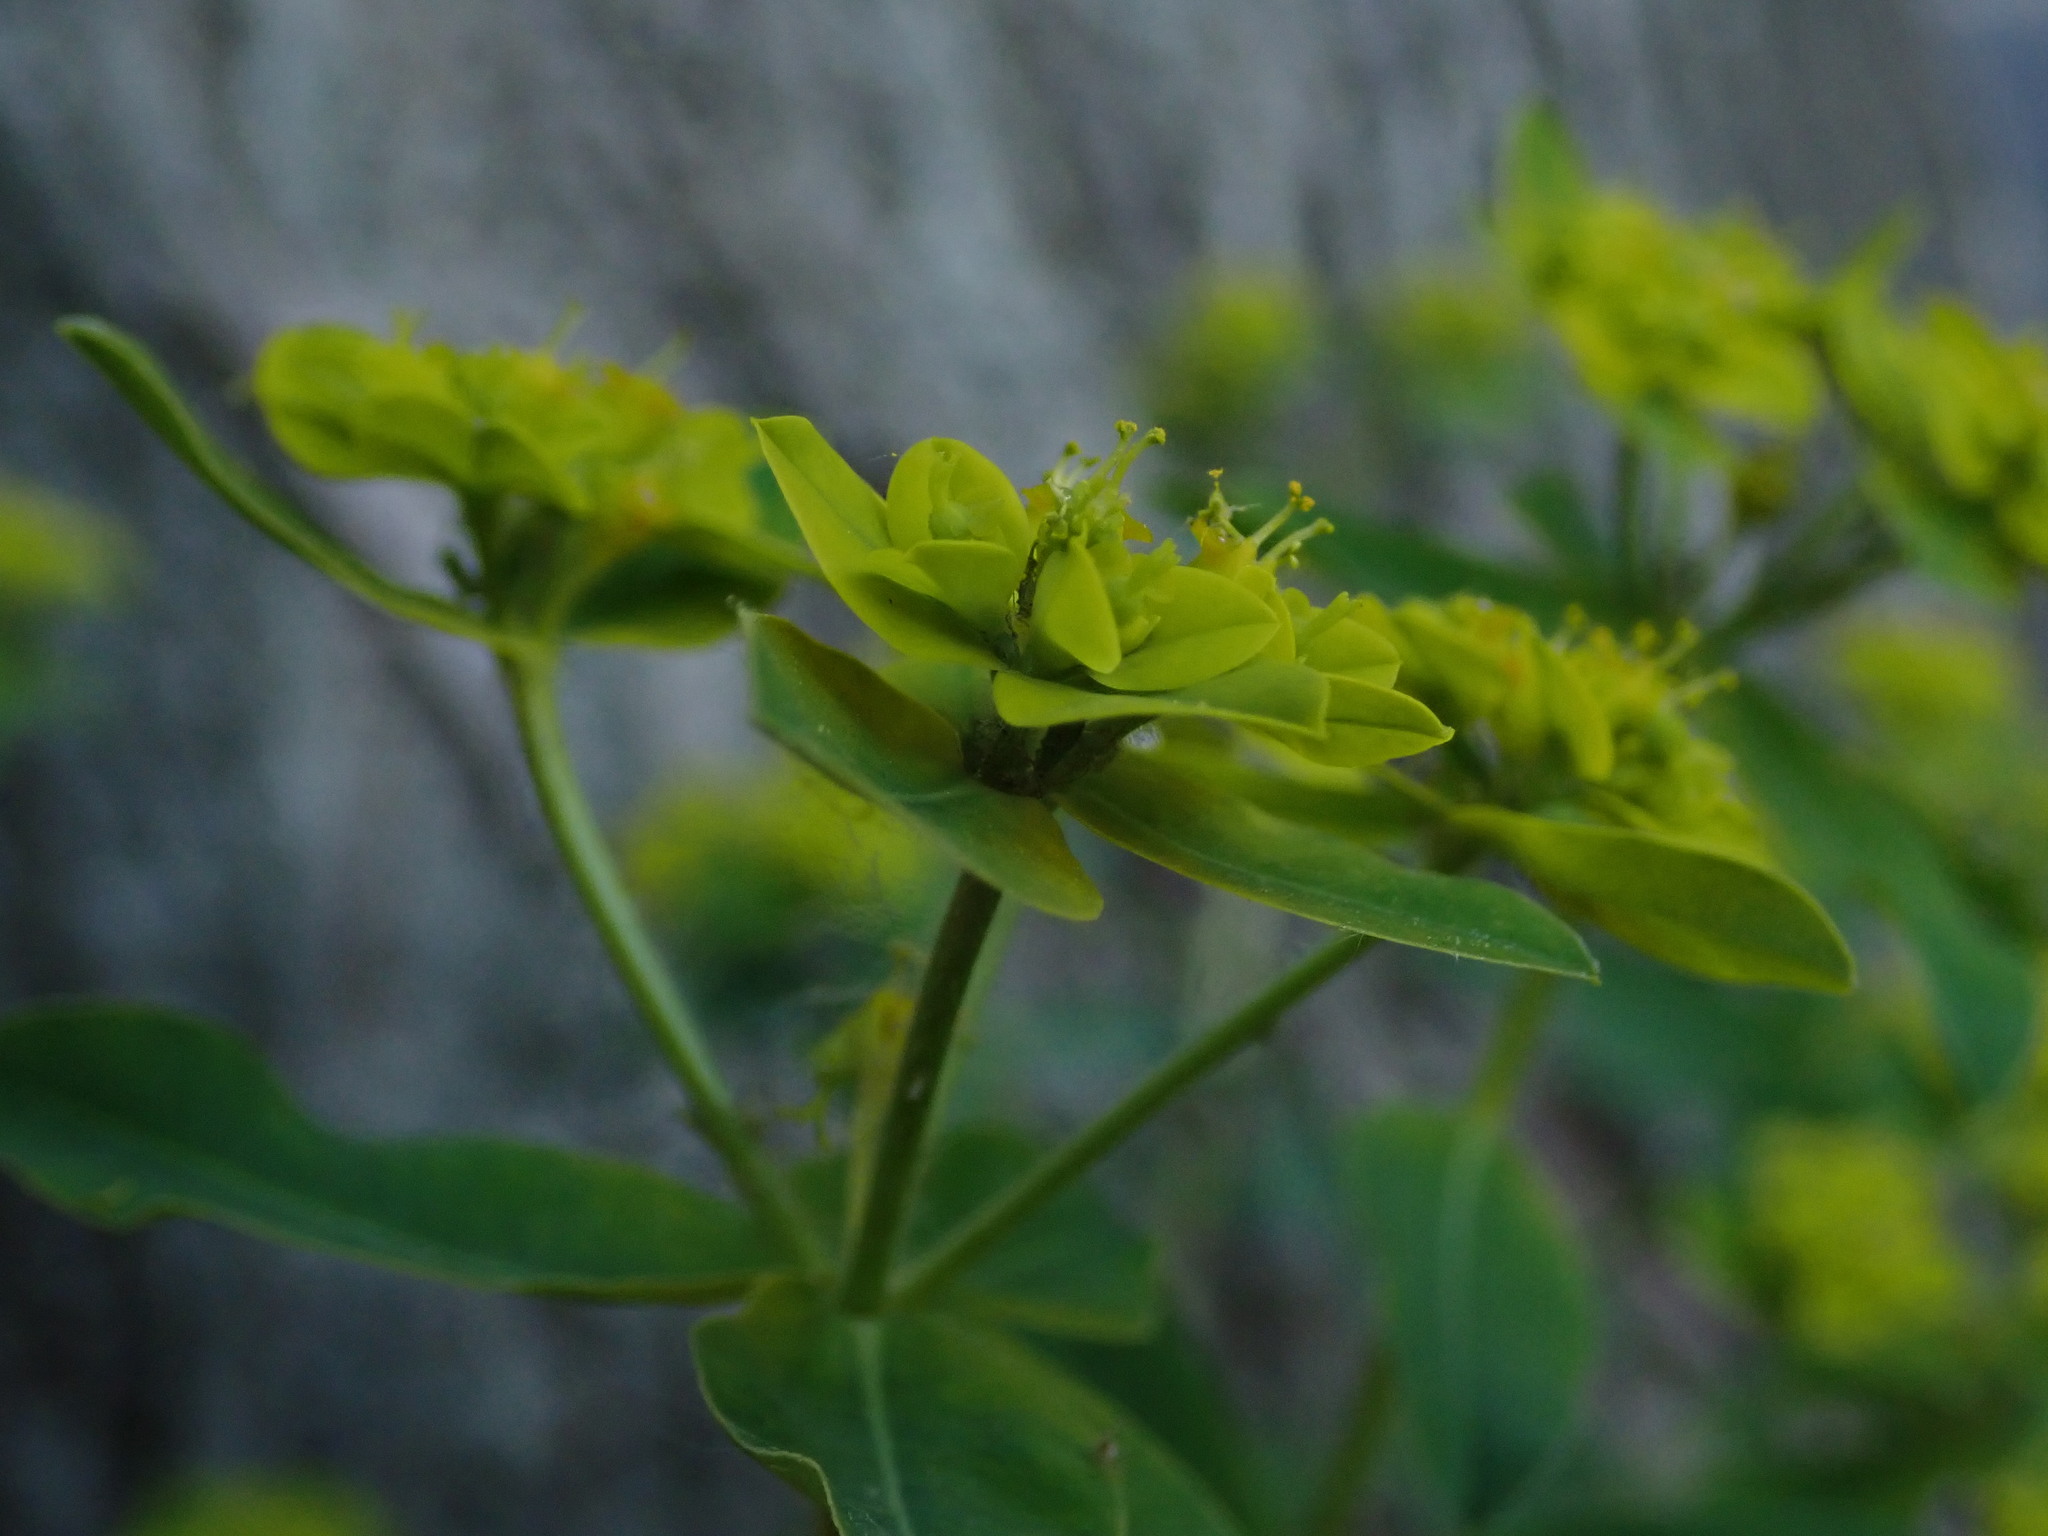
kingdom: Plantae
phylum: Tracheophyta
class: Magnoliopsida
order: Malpighiales
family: Euphorbiaceae
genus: Euphorbia
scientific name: Euphorbia oblongata
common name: Balkan spurge
